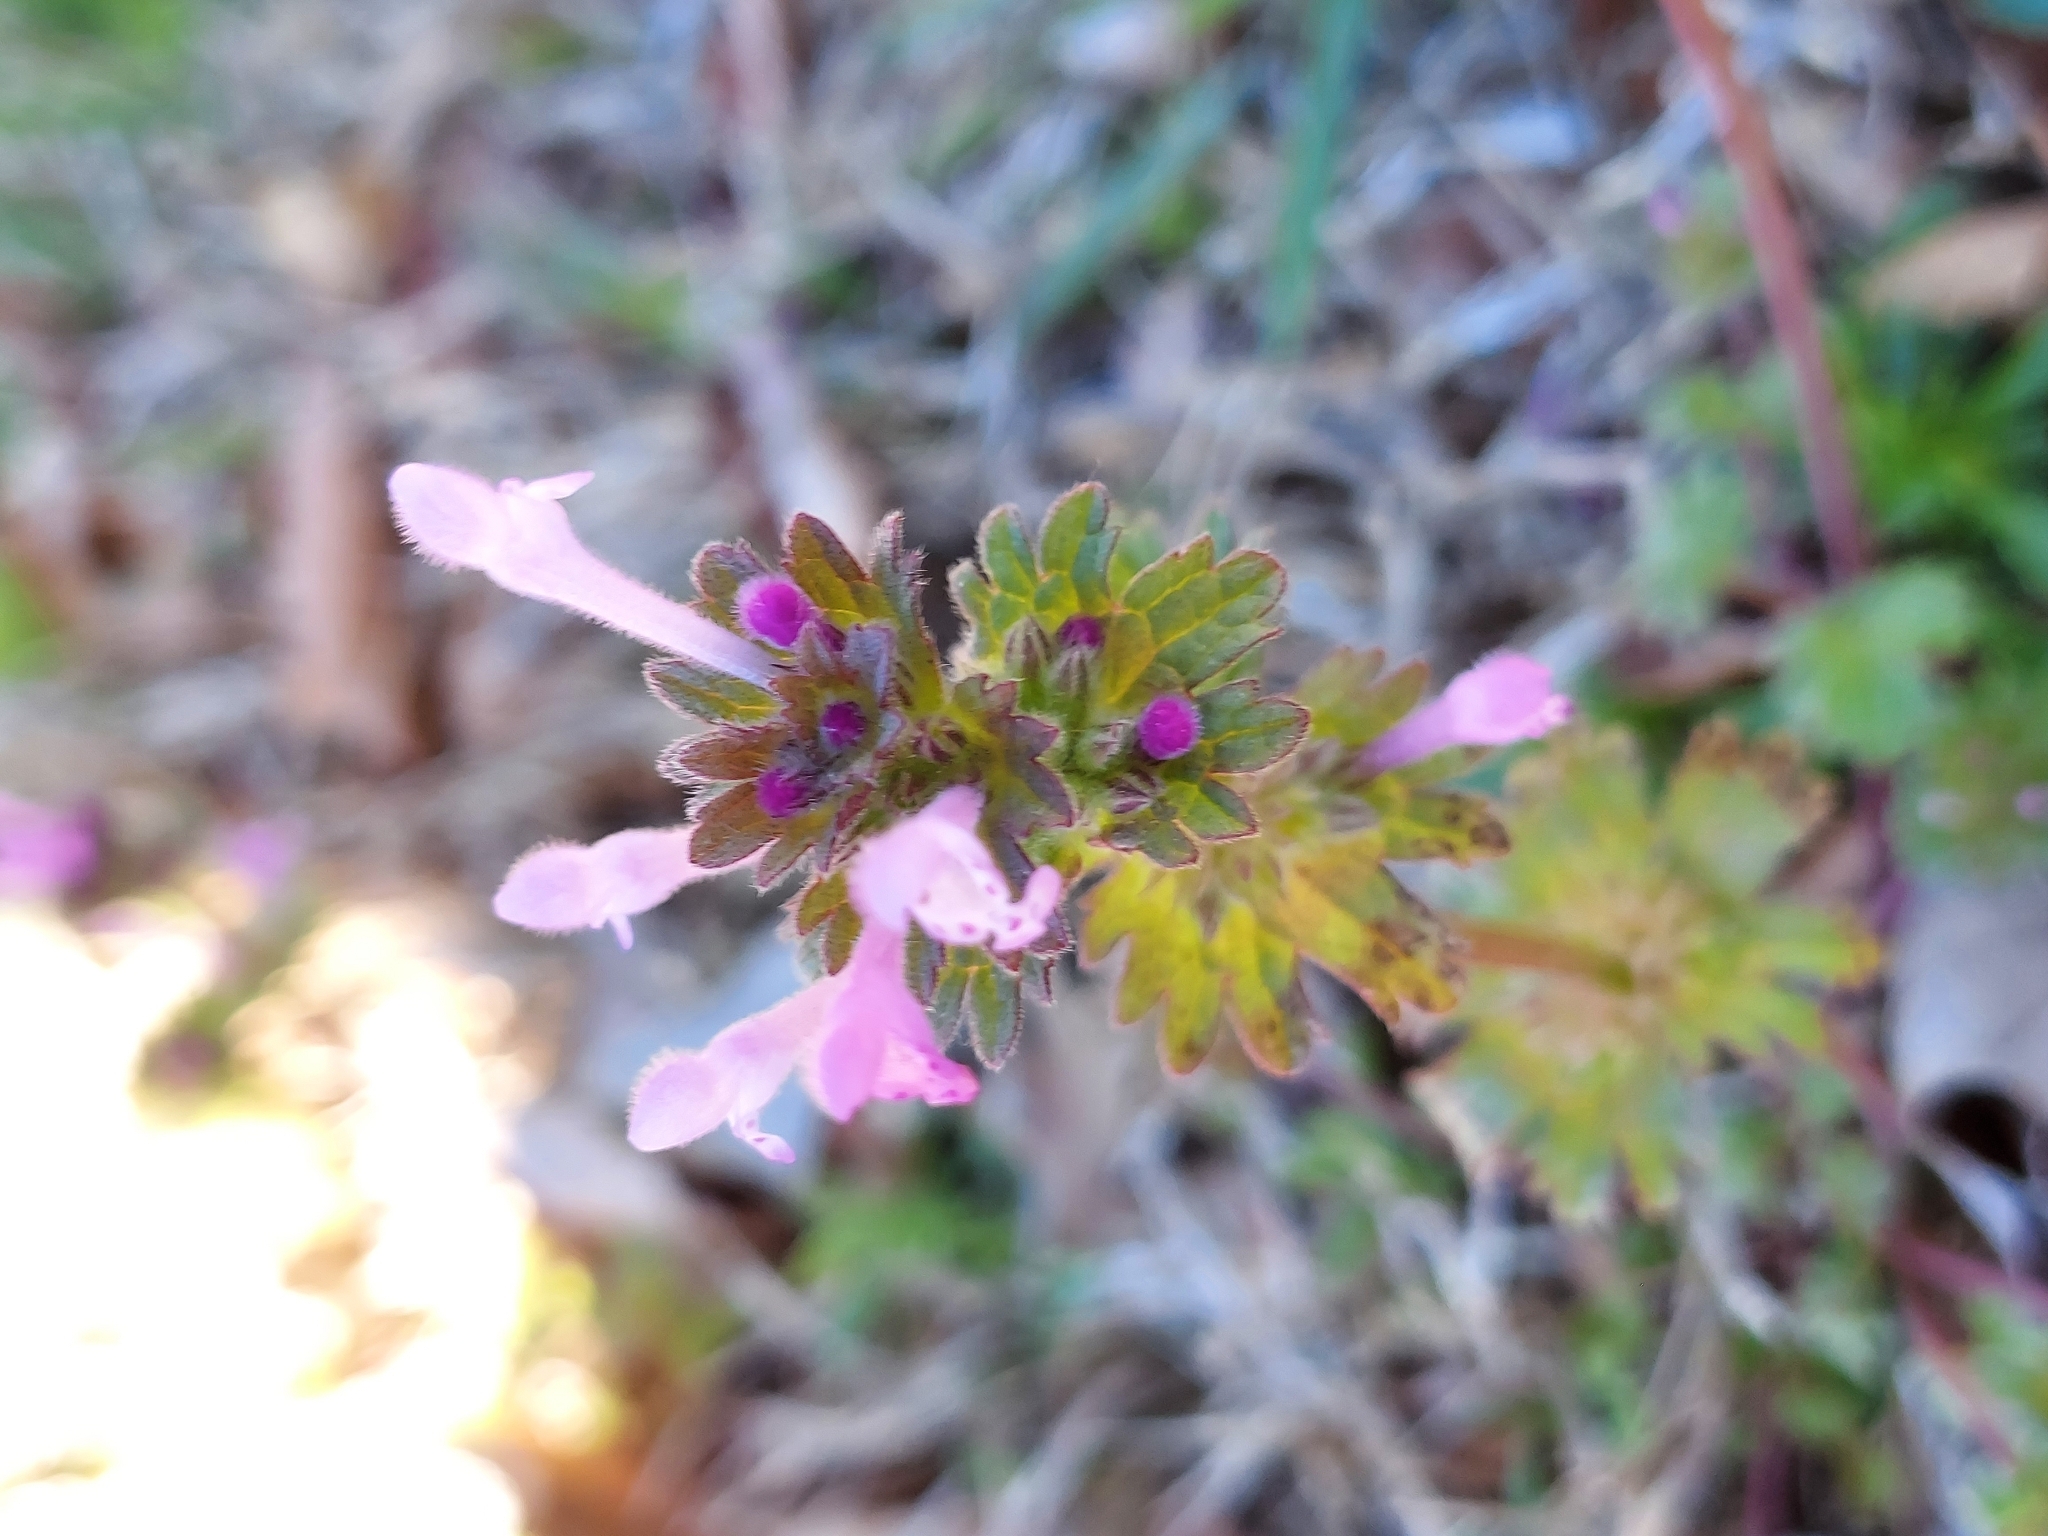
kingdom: Plantae
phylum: Tracheophyta
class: Magnoliopsida
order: Lamiales
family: Lamiaceae
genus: Lamium
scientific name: Lamium amplexicaule
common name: Henbit dead-nettle
